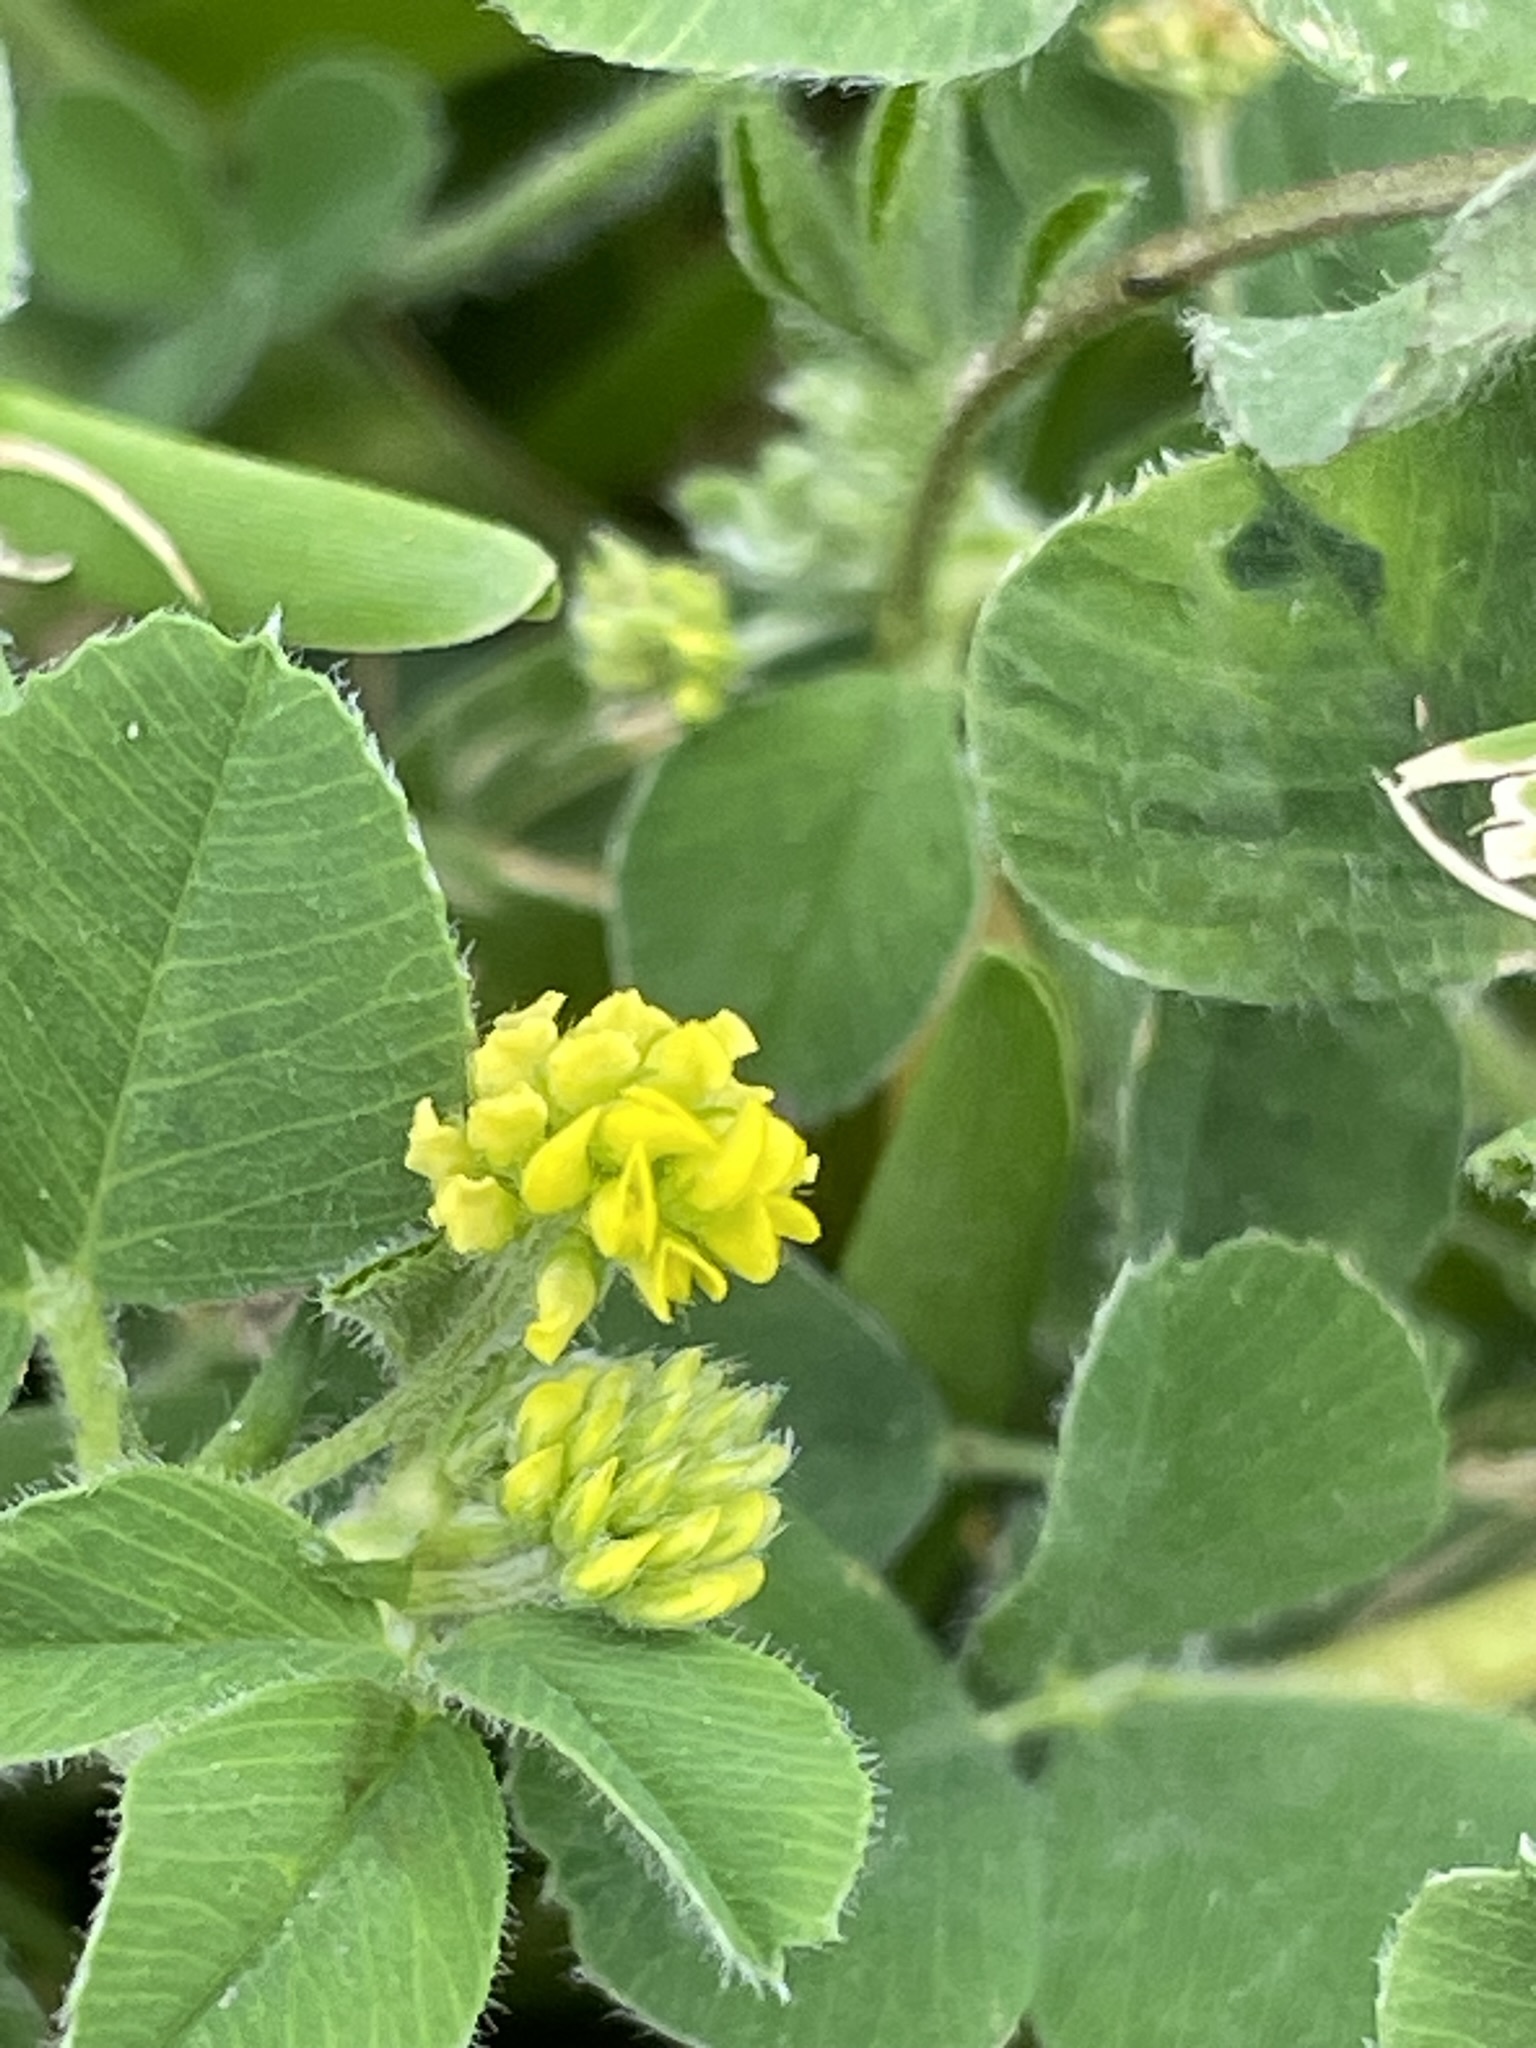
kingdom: Plantae
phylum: Tracheophyta
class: Magnoliopsida
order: Fabales
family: Fabaceae
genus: Medicago
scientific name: Medicago lupulina
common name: Black medick
